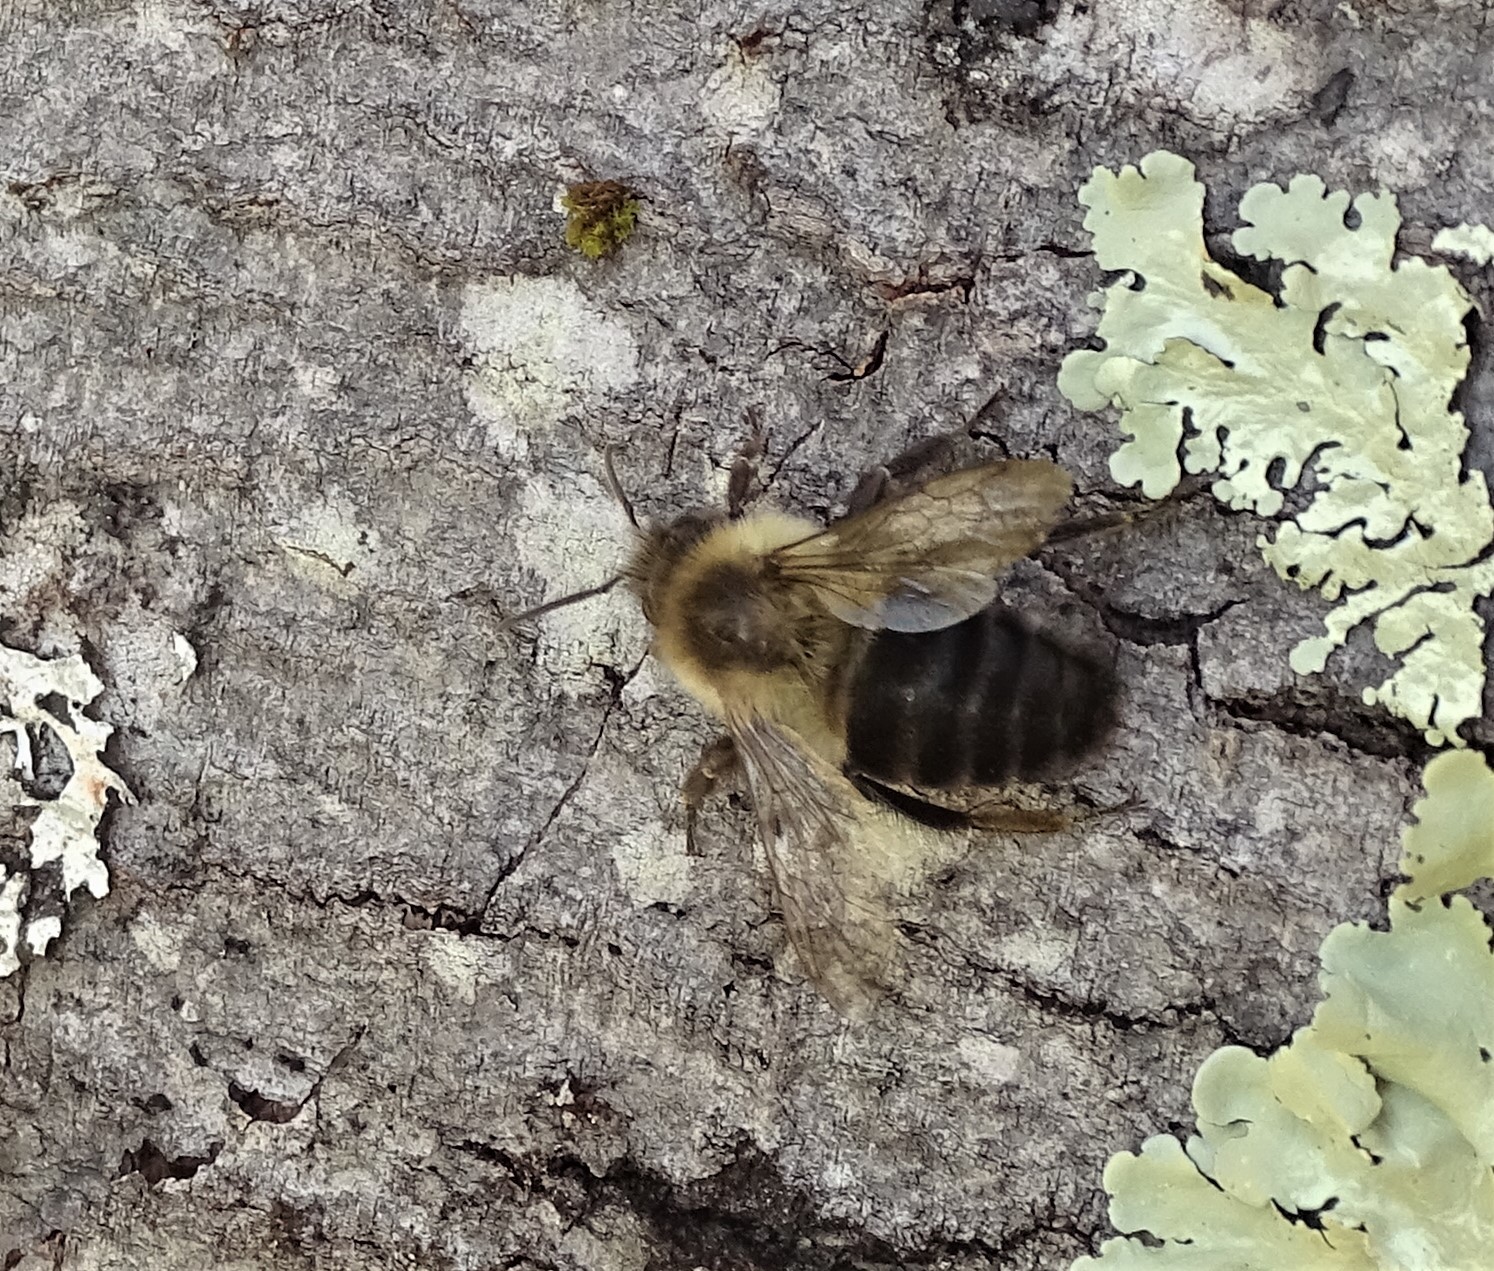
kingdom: Animalia
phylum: Arthropoda
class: Insecta
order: Hymenoptera
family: Apidae
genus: Bombus
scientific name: Bombus impatiens
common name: Common eastern bumble bee
